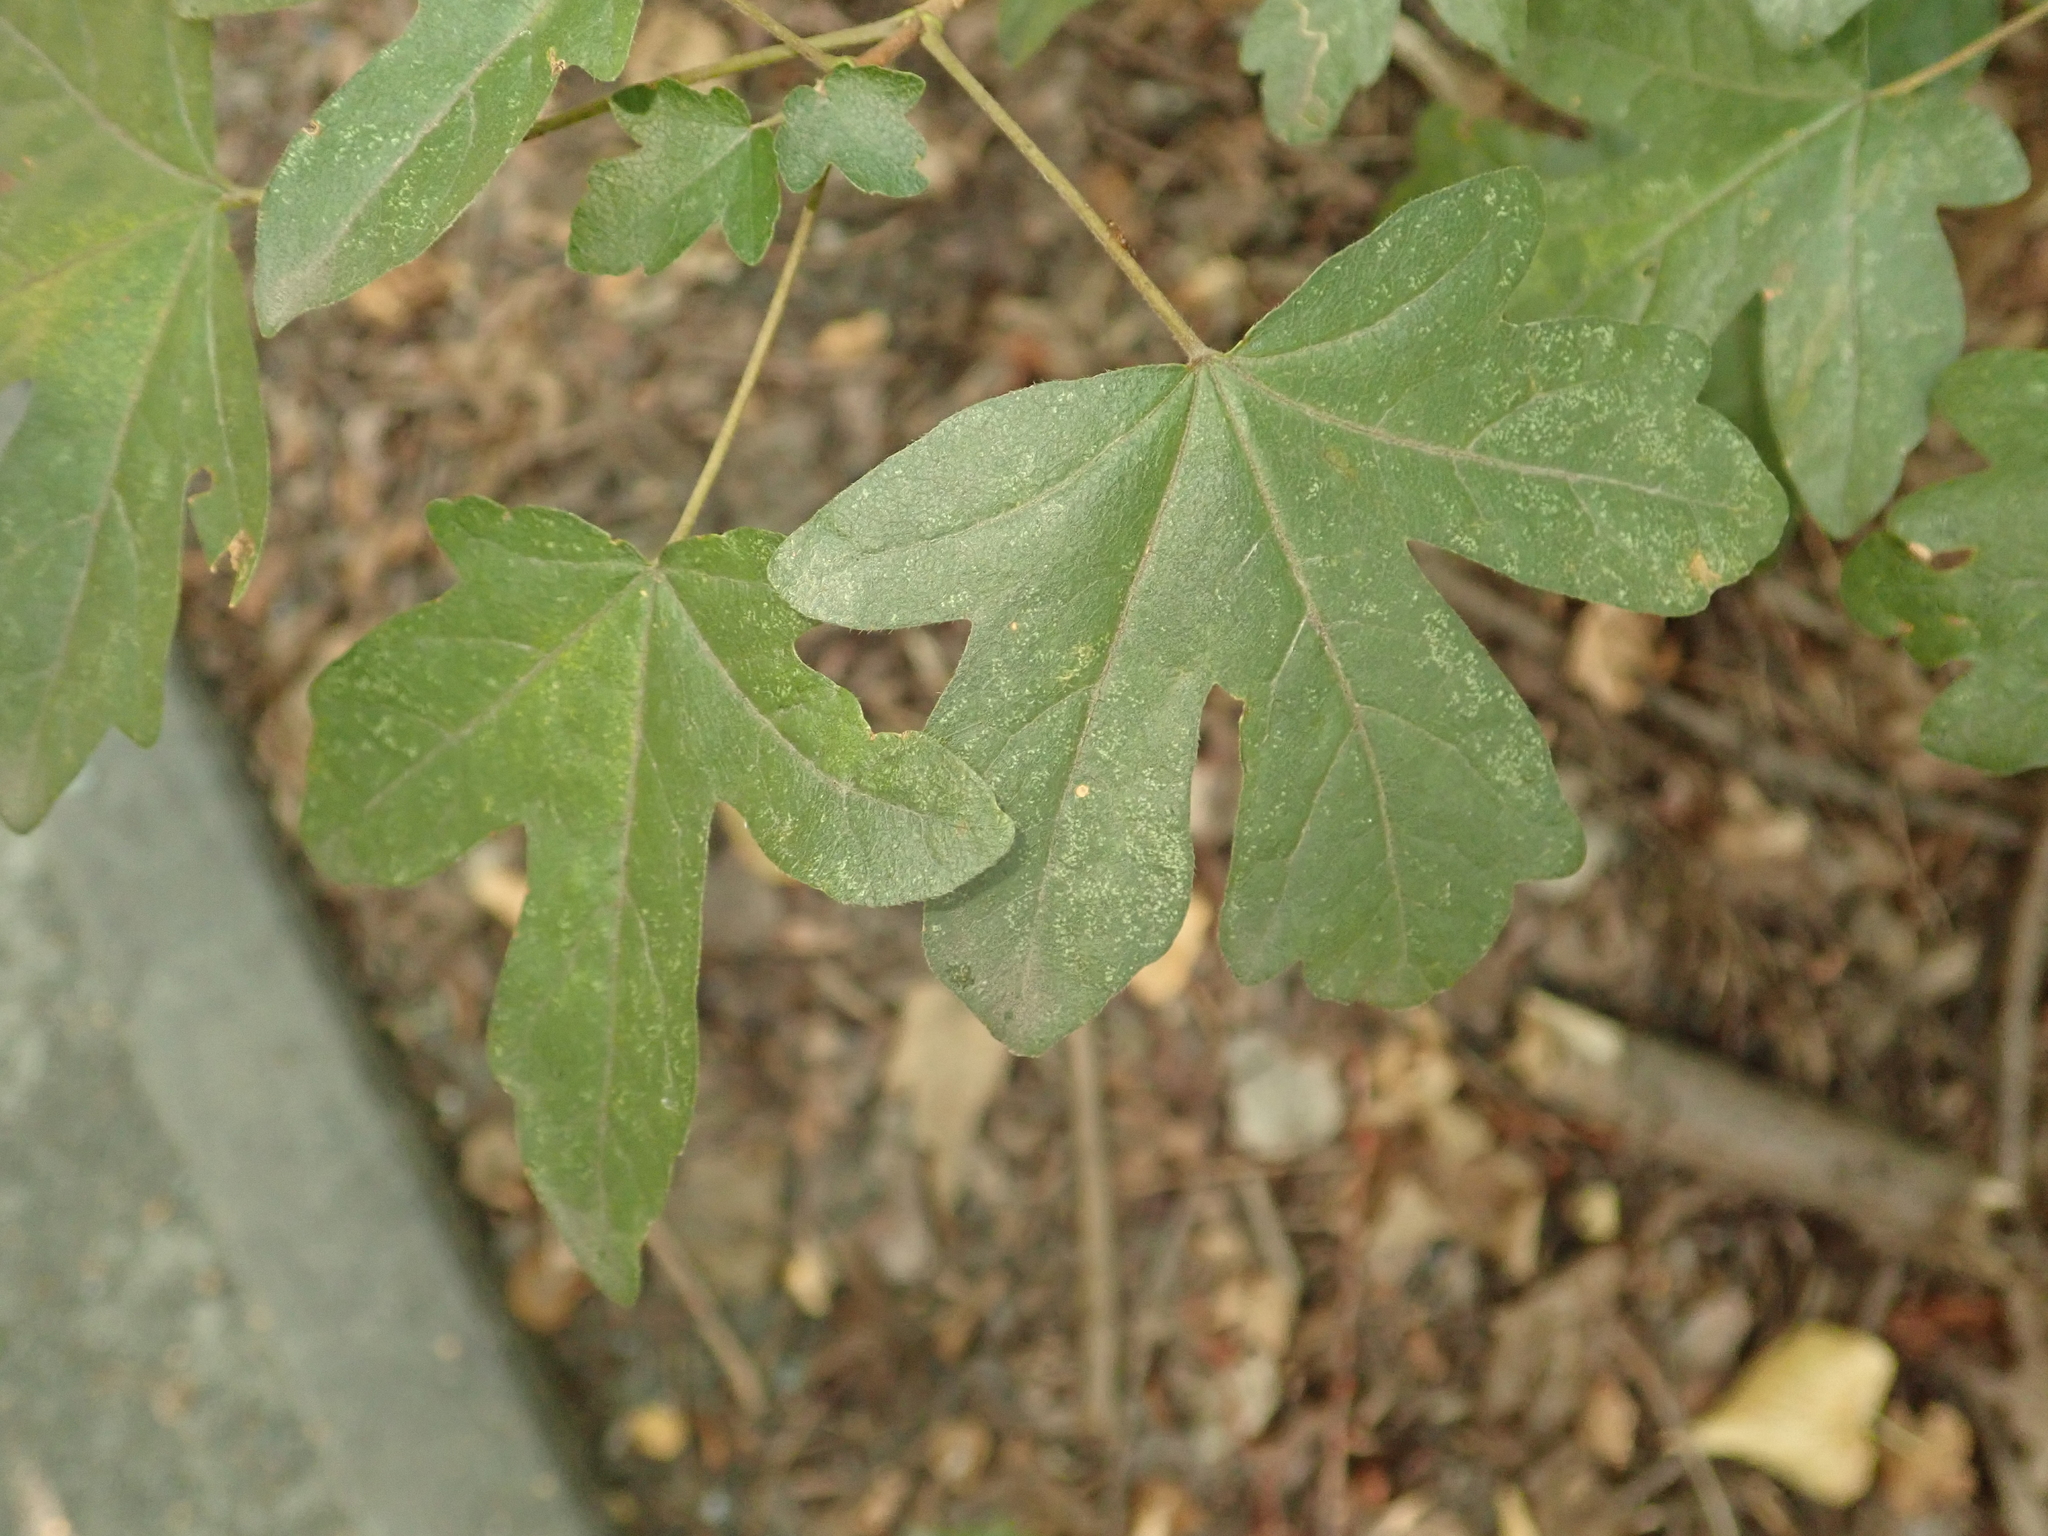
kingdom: Plantae
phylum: Tracheophyta
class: Magnoliopsida
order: Sapindales
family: Sapindaceae
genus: Acer
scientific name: Acer campestre
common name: Field maple
